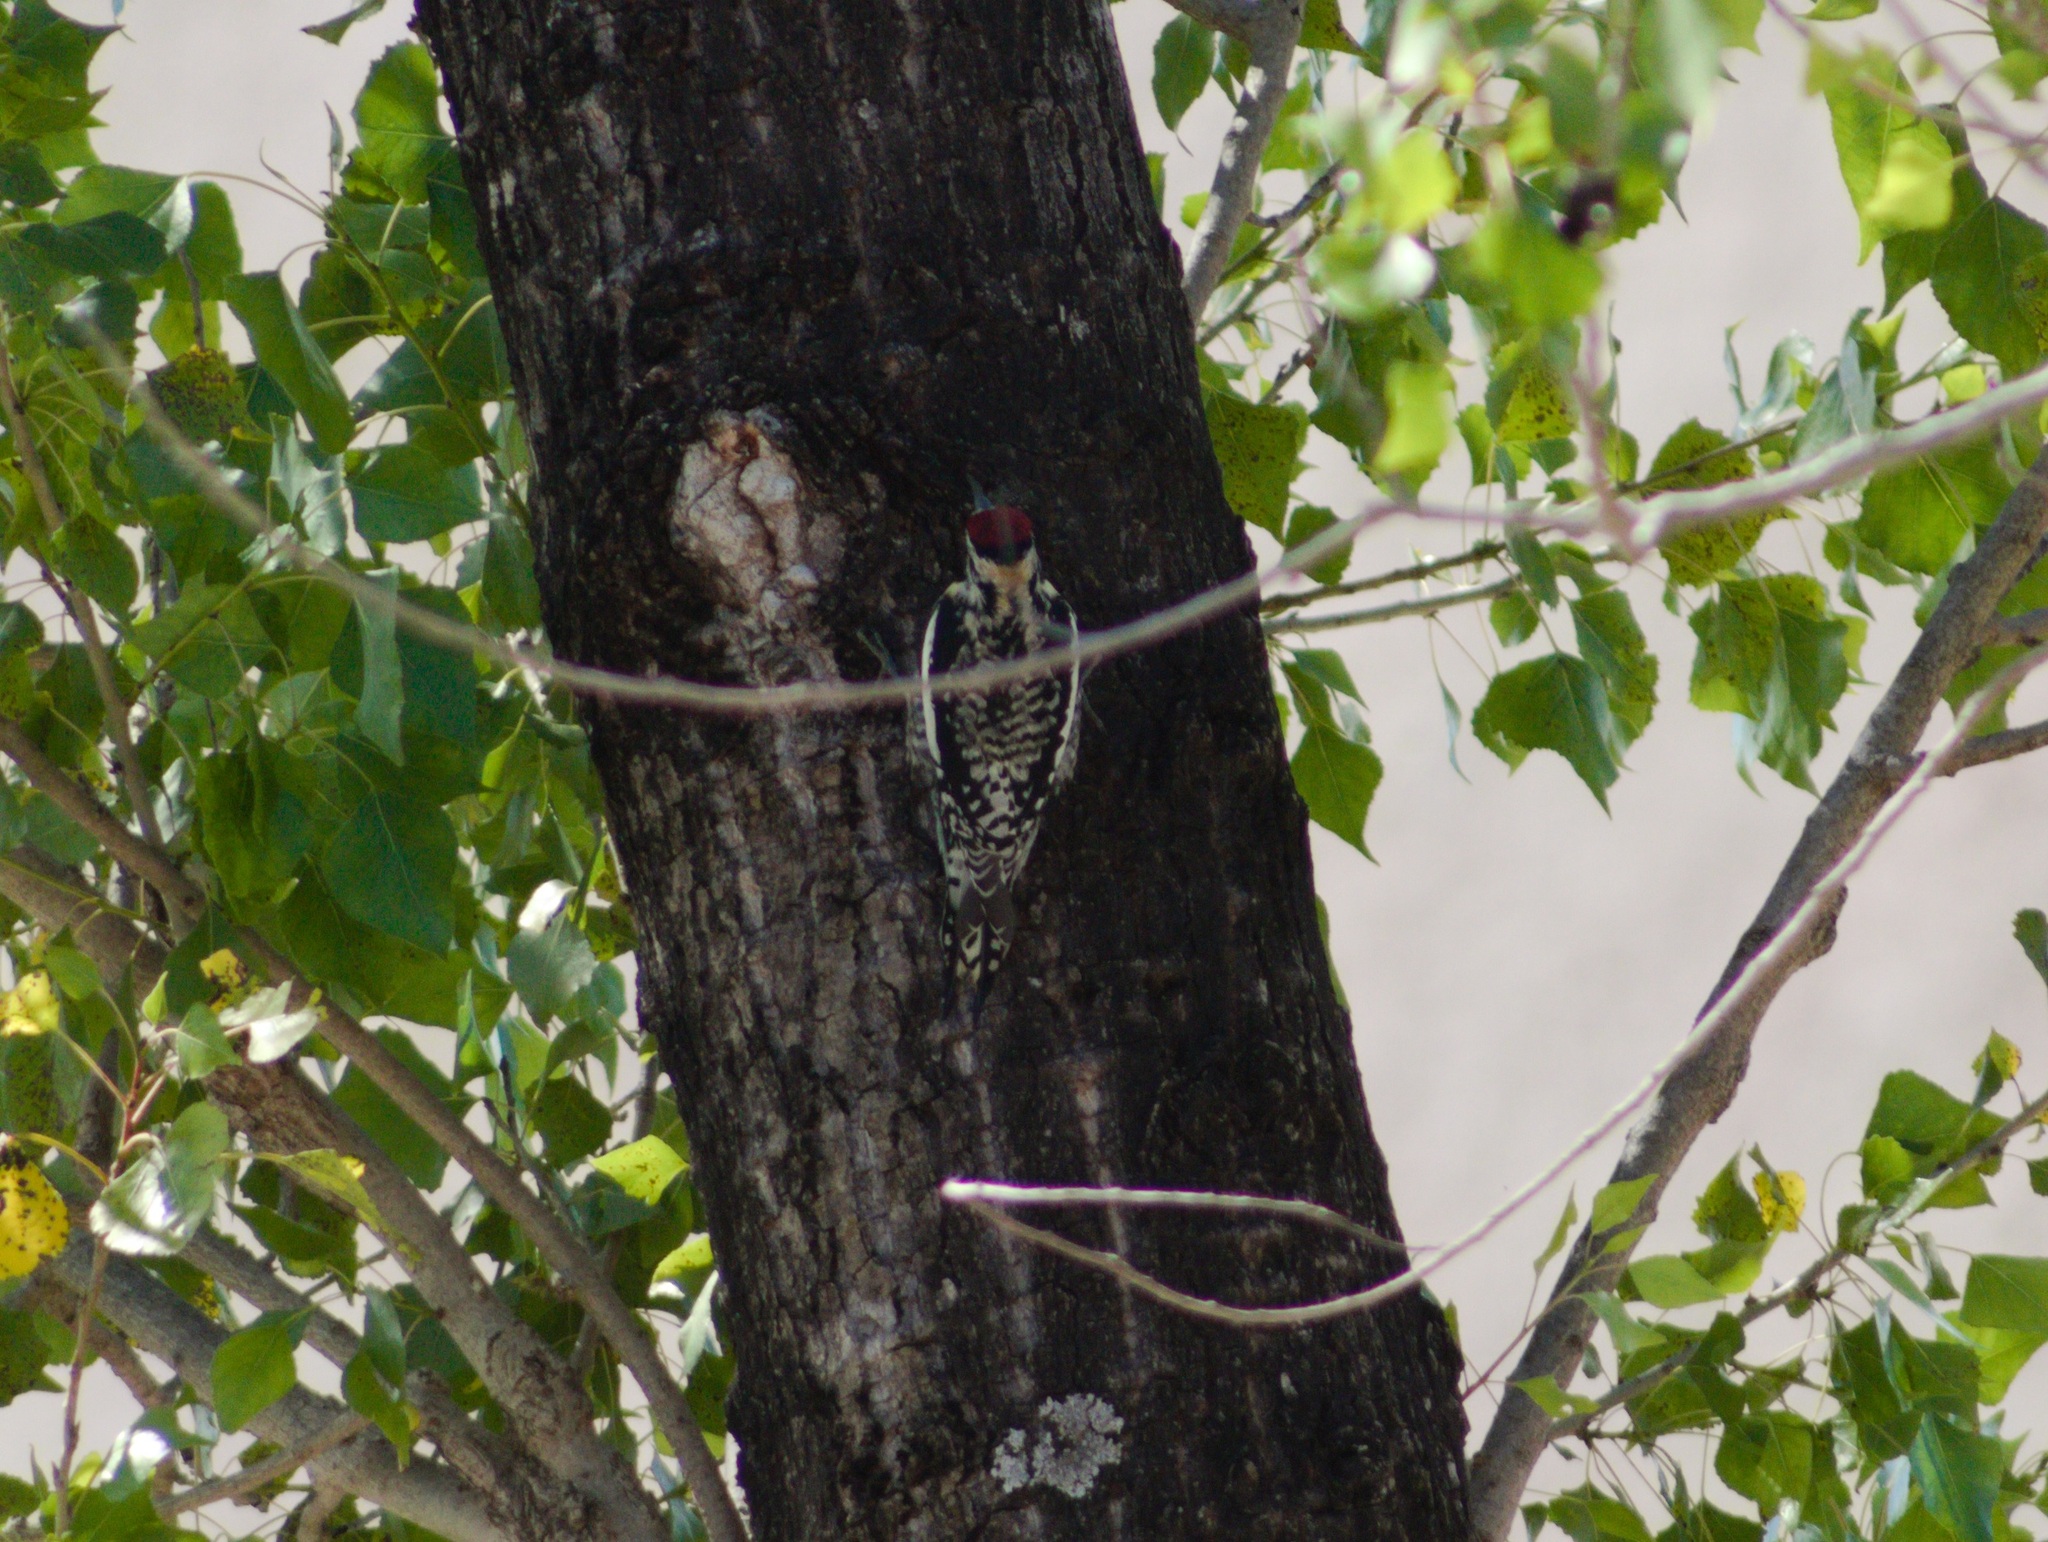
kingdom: Animalia
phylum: Chordata
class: Aves
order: Piciformes
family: Picidae
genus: Sphyrapicus
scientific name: Sphyrapicus varius
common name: Yellow-bellied sapsucker
